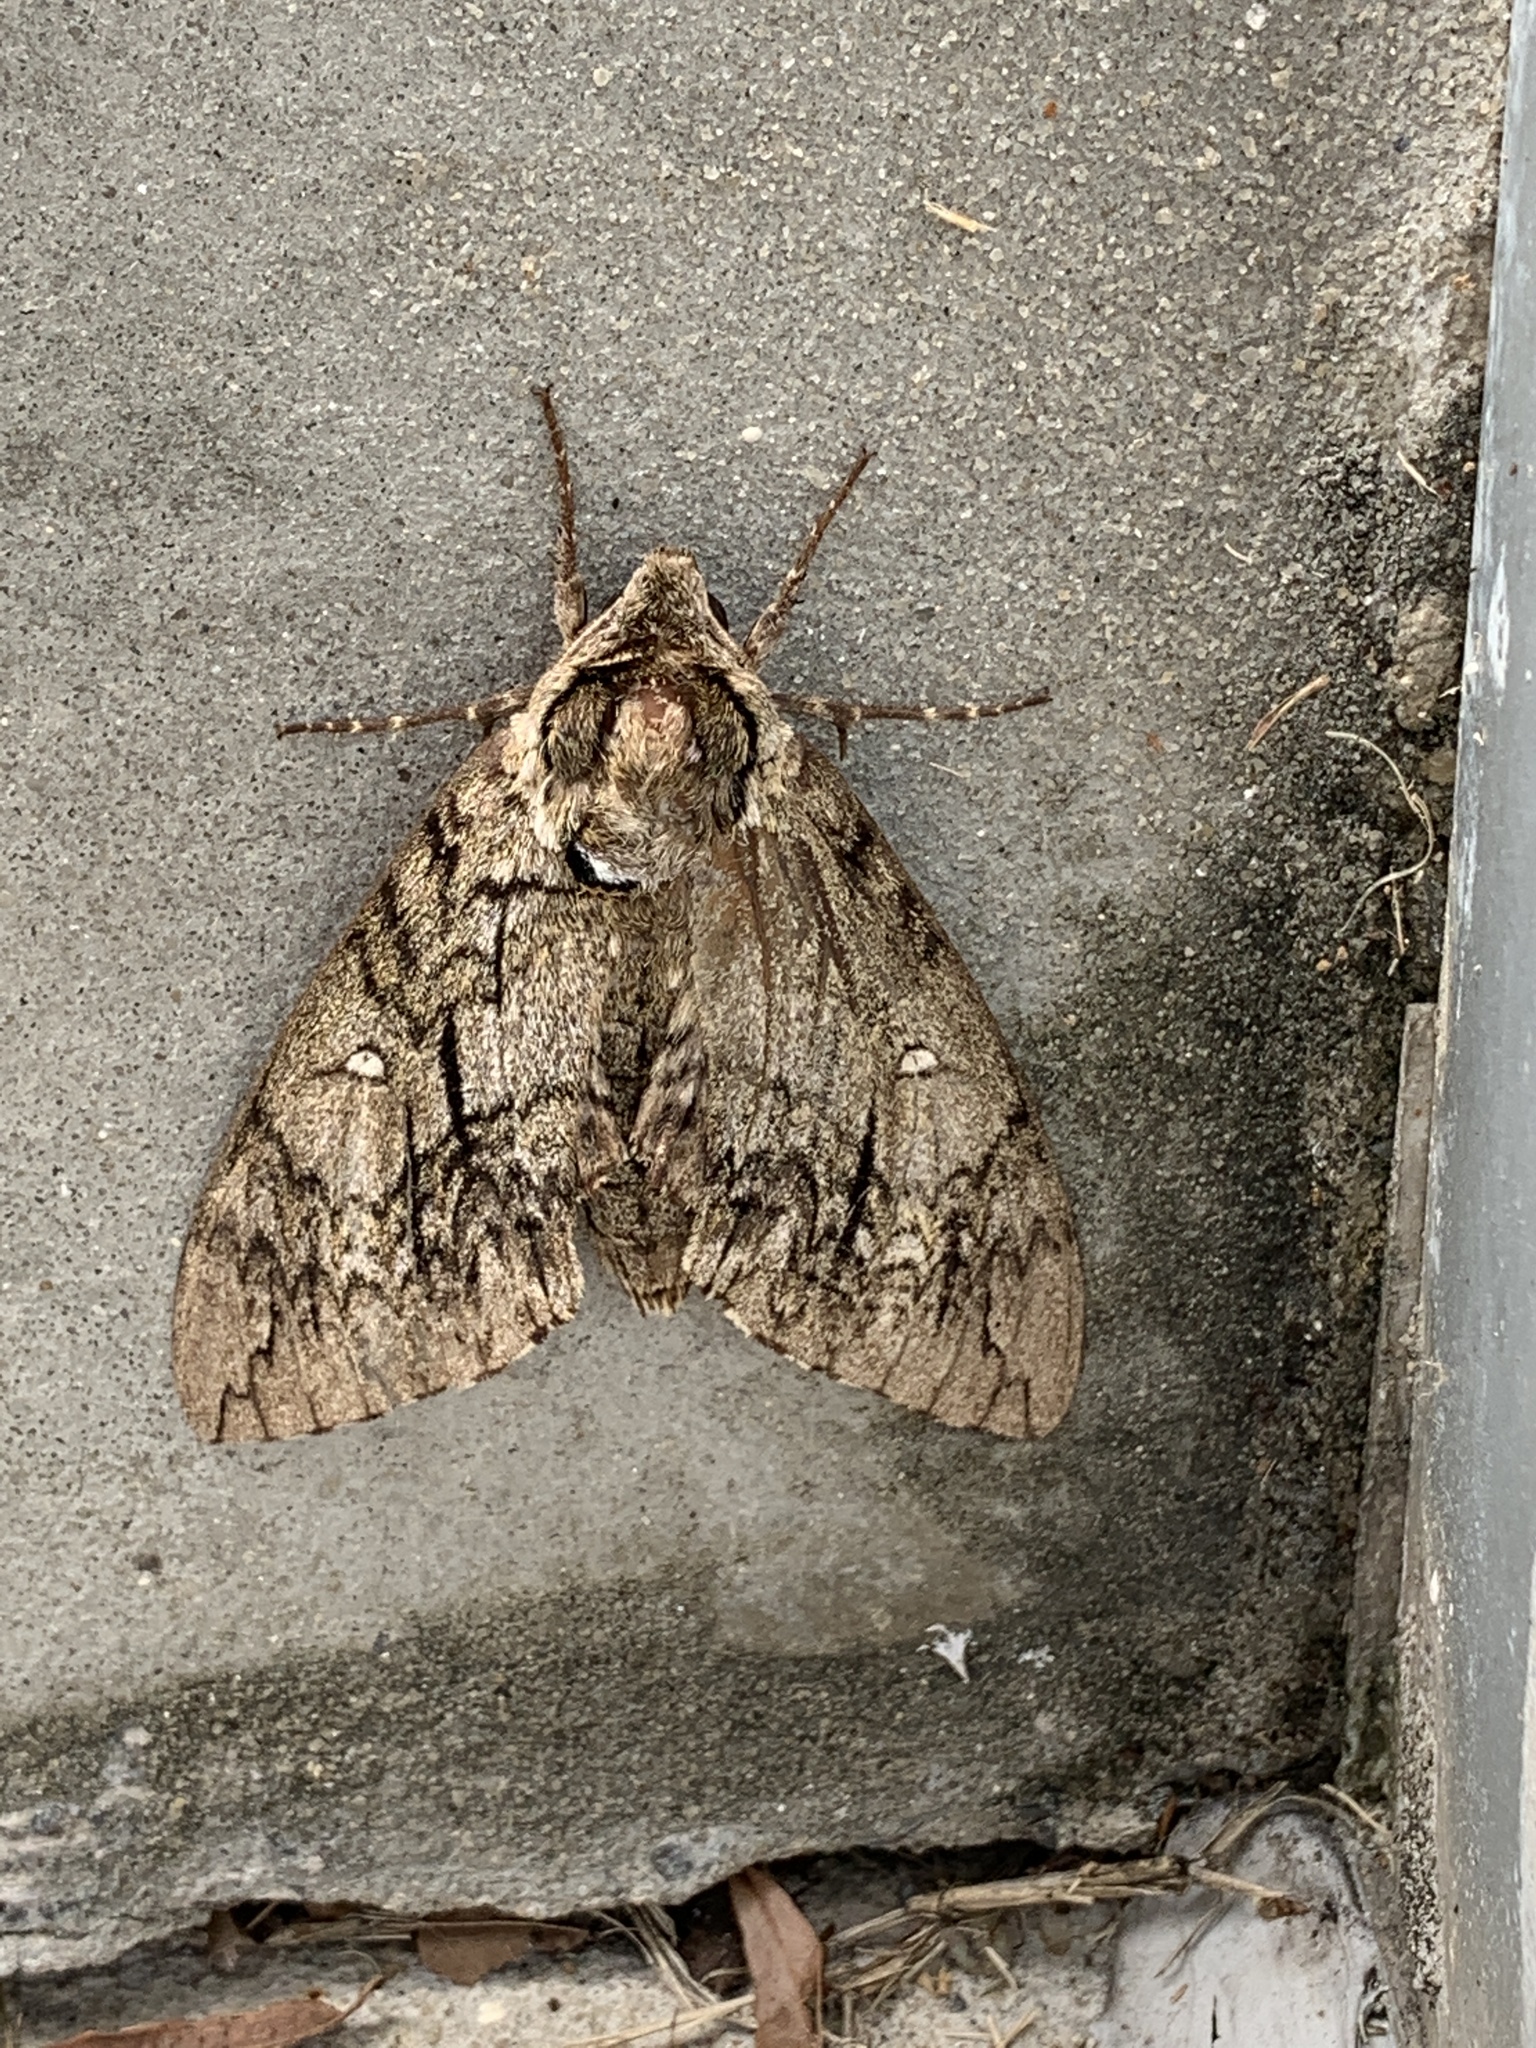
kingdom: Animalia
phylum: Arthropoda
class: Insecta
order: Lepidoptera
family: Sphingidae
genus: Ceratomia
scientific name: Ceratomia undulosa
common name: Waved sphinx
